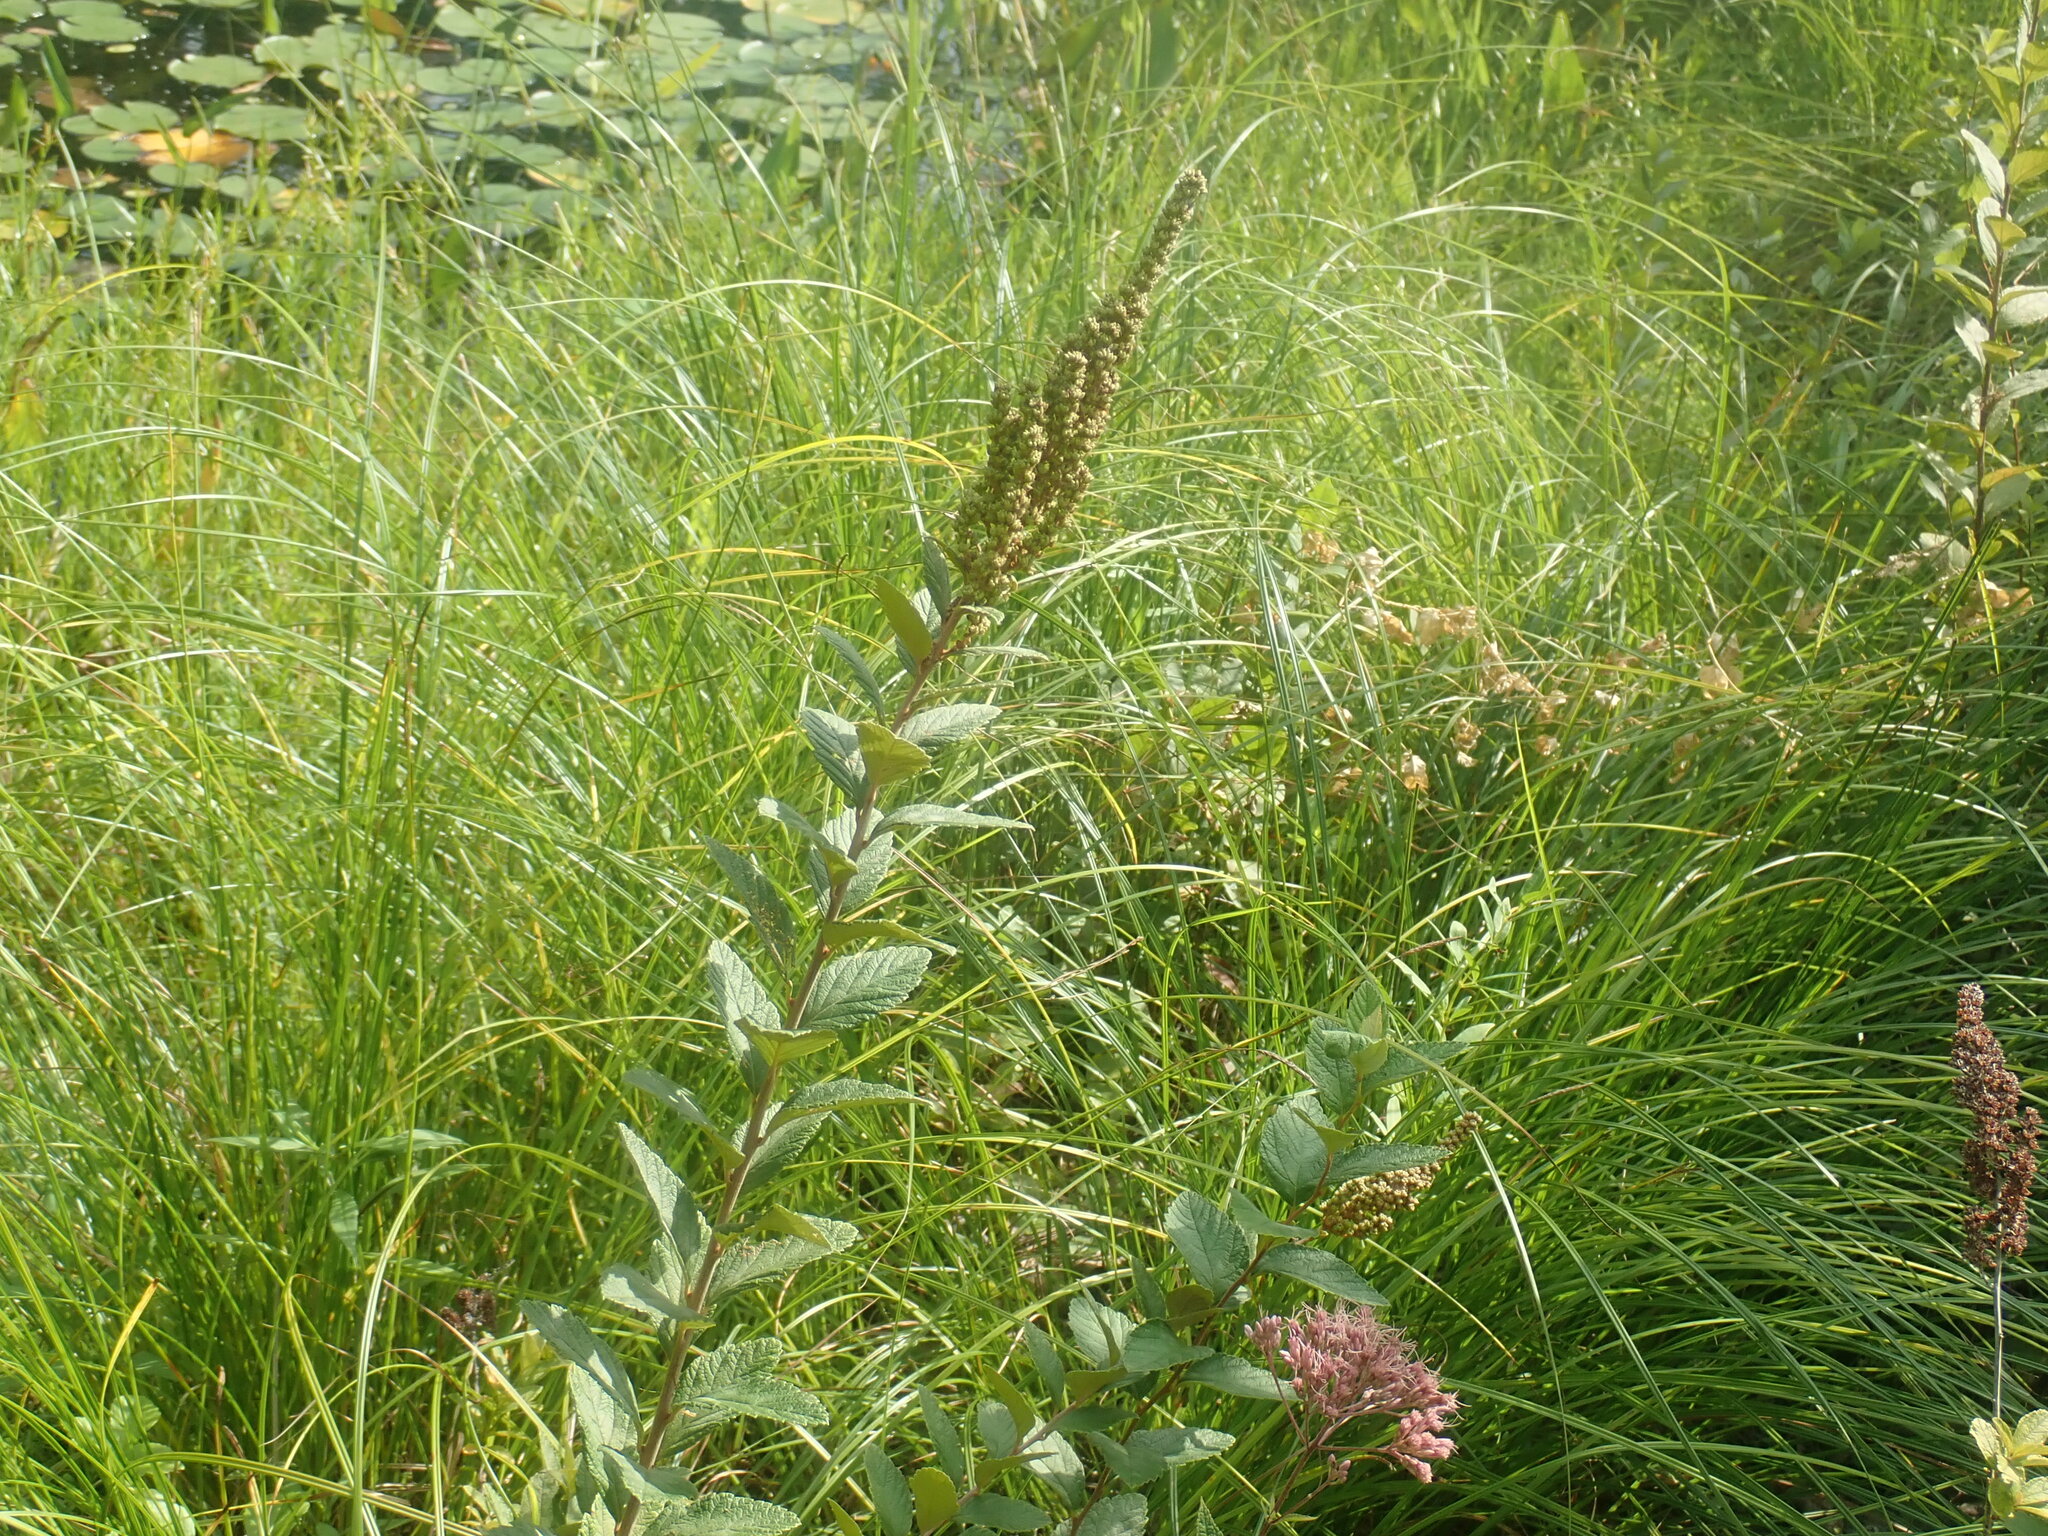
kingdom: Plantae
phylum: Tracheophyta
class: Magnoliopsida
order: Rosales
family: Rosaceae
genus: Spiraea
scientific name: Spiraea tomentosa
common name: Hardhack
